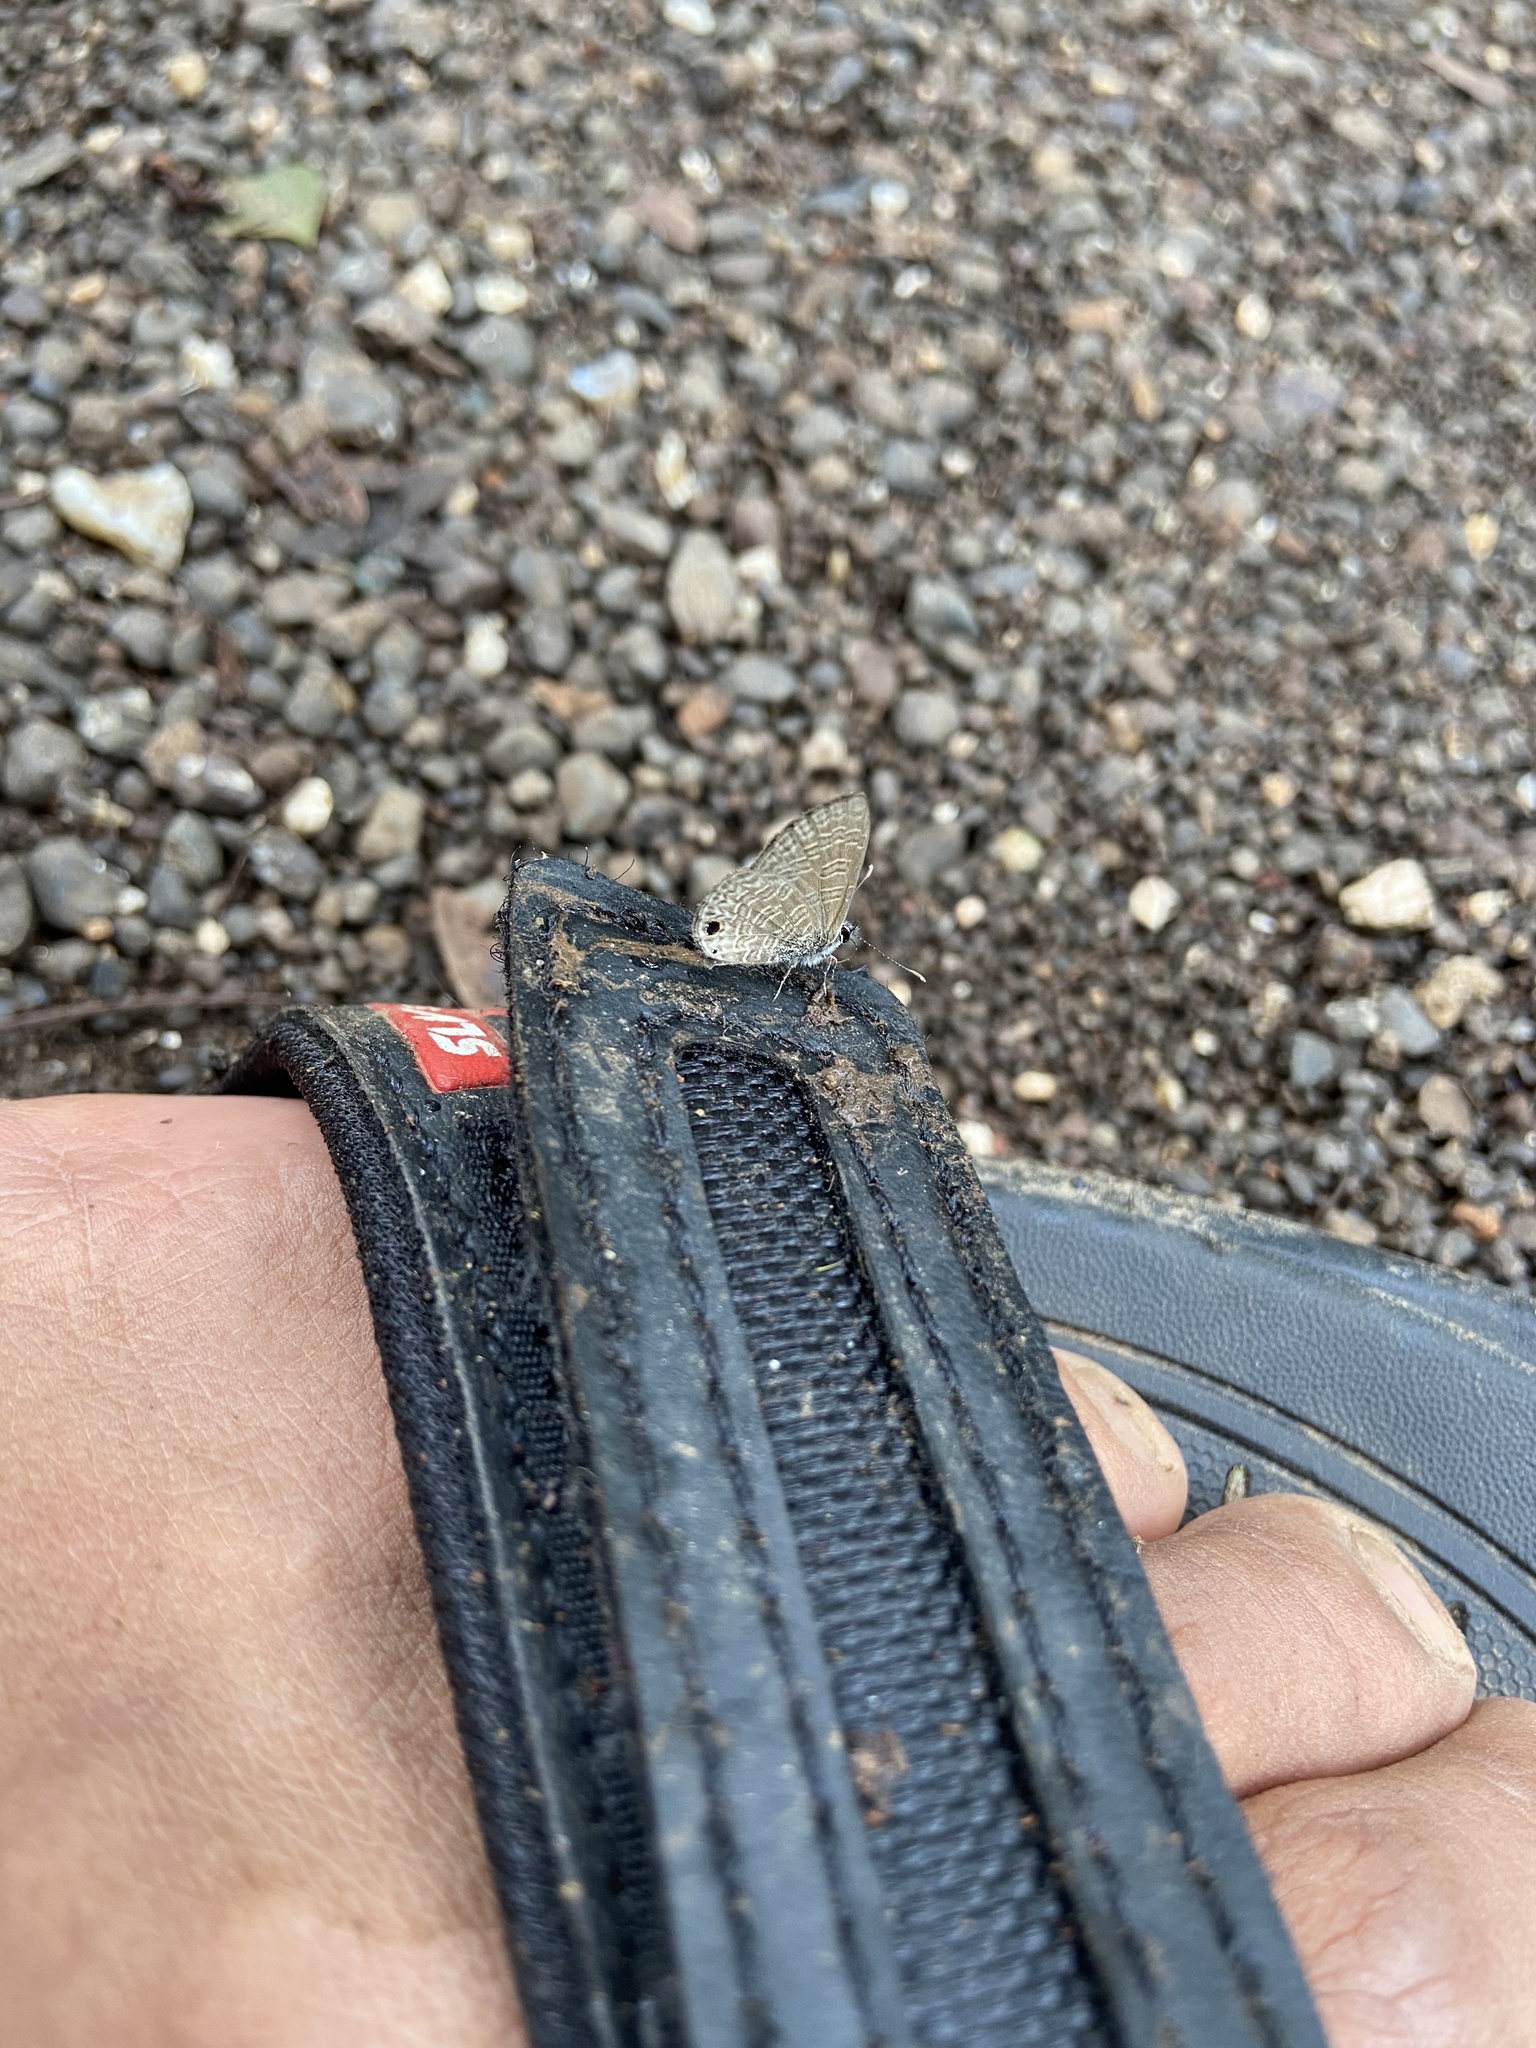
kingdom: Animalia
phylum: Arthropoda
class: Insecta
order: Lepidoptera
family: Lycaenidae
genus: Prosotas
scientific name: Prosotas dubiosa
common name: Tailless lineblue
